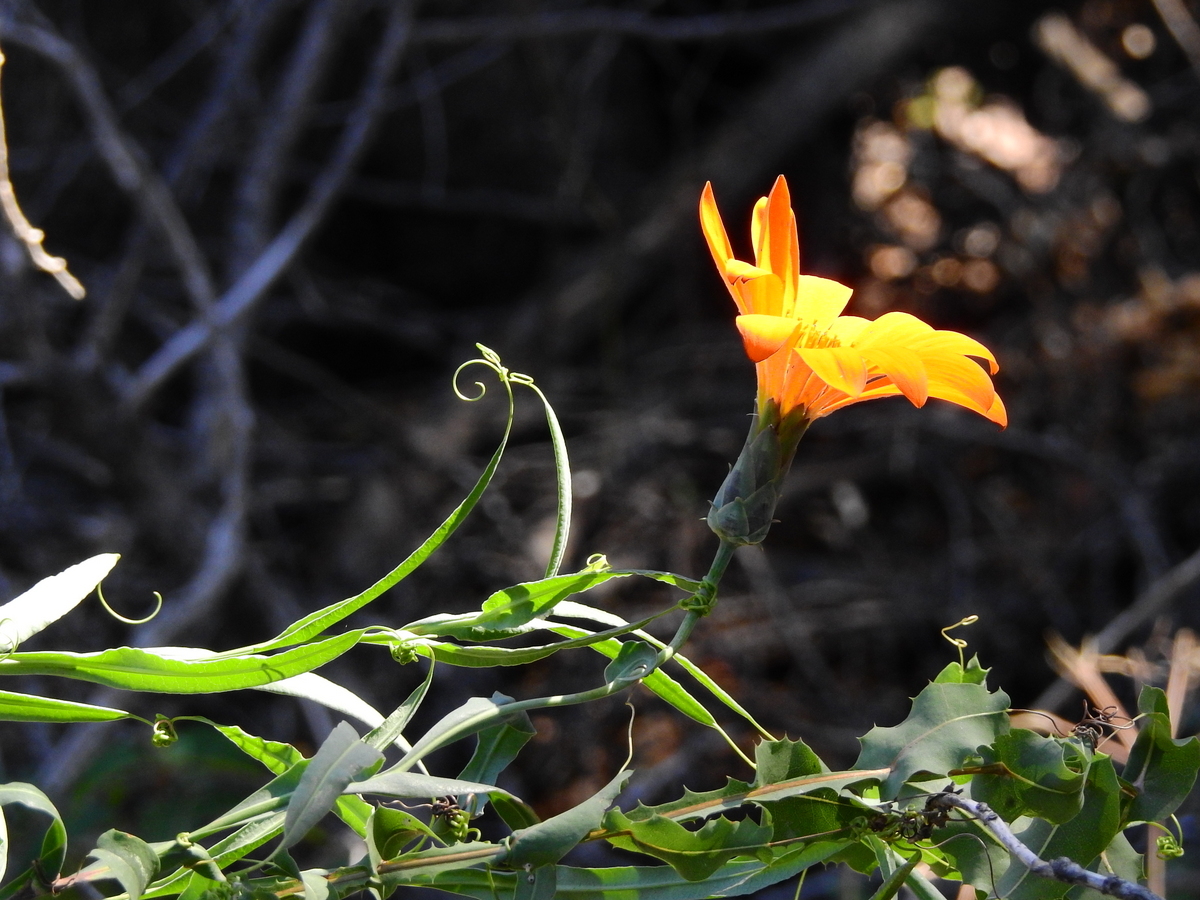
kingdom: Plantae
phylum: Tracheophyta
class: Magnoliopsida
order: Asterales
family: Asteraceae
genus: Mutisia
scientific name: Mutisia decurrens
